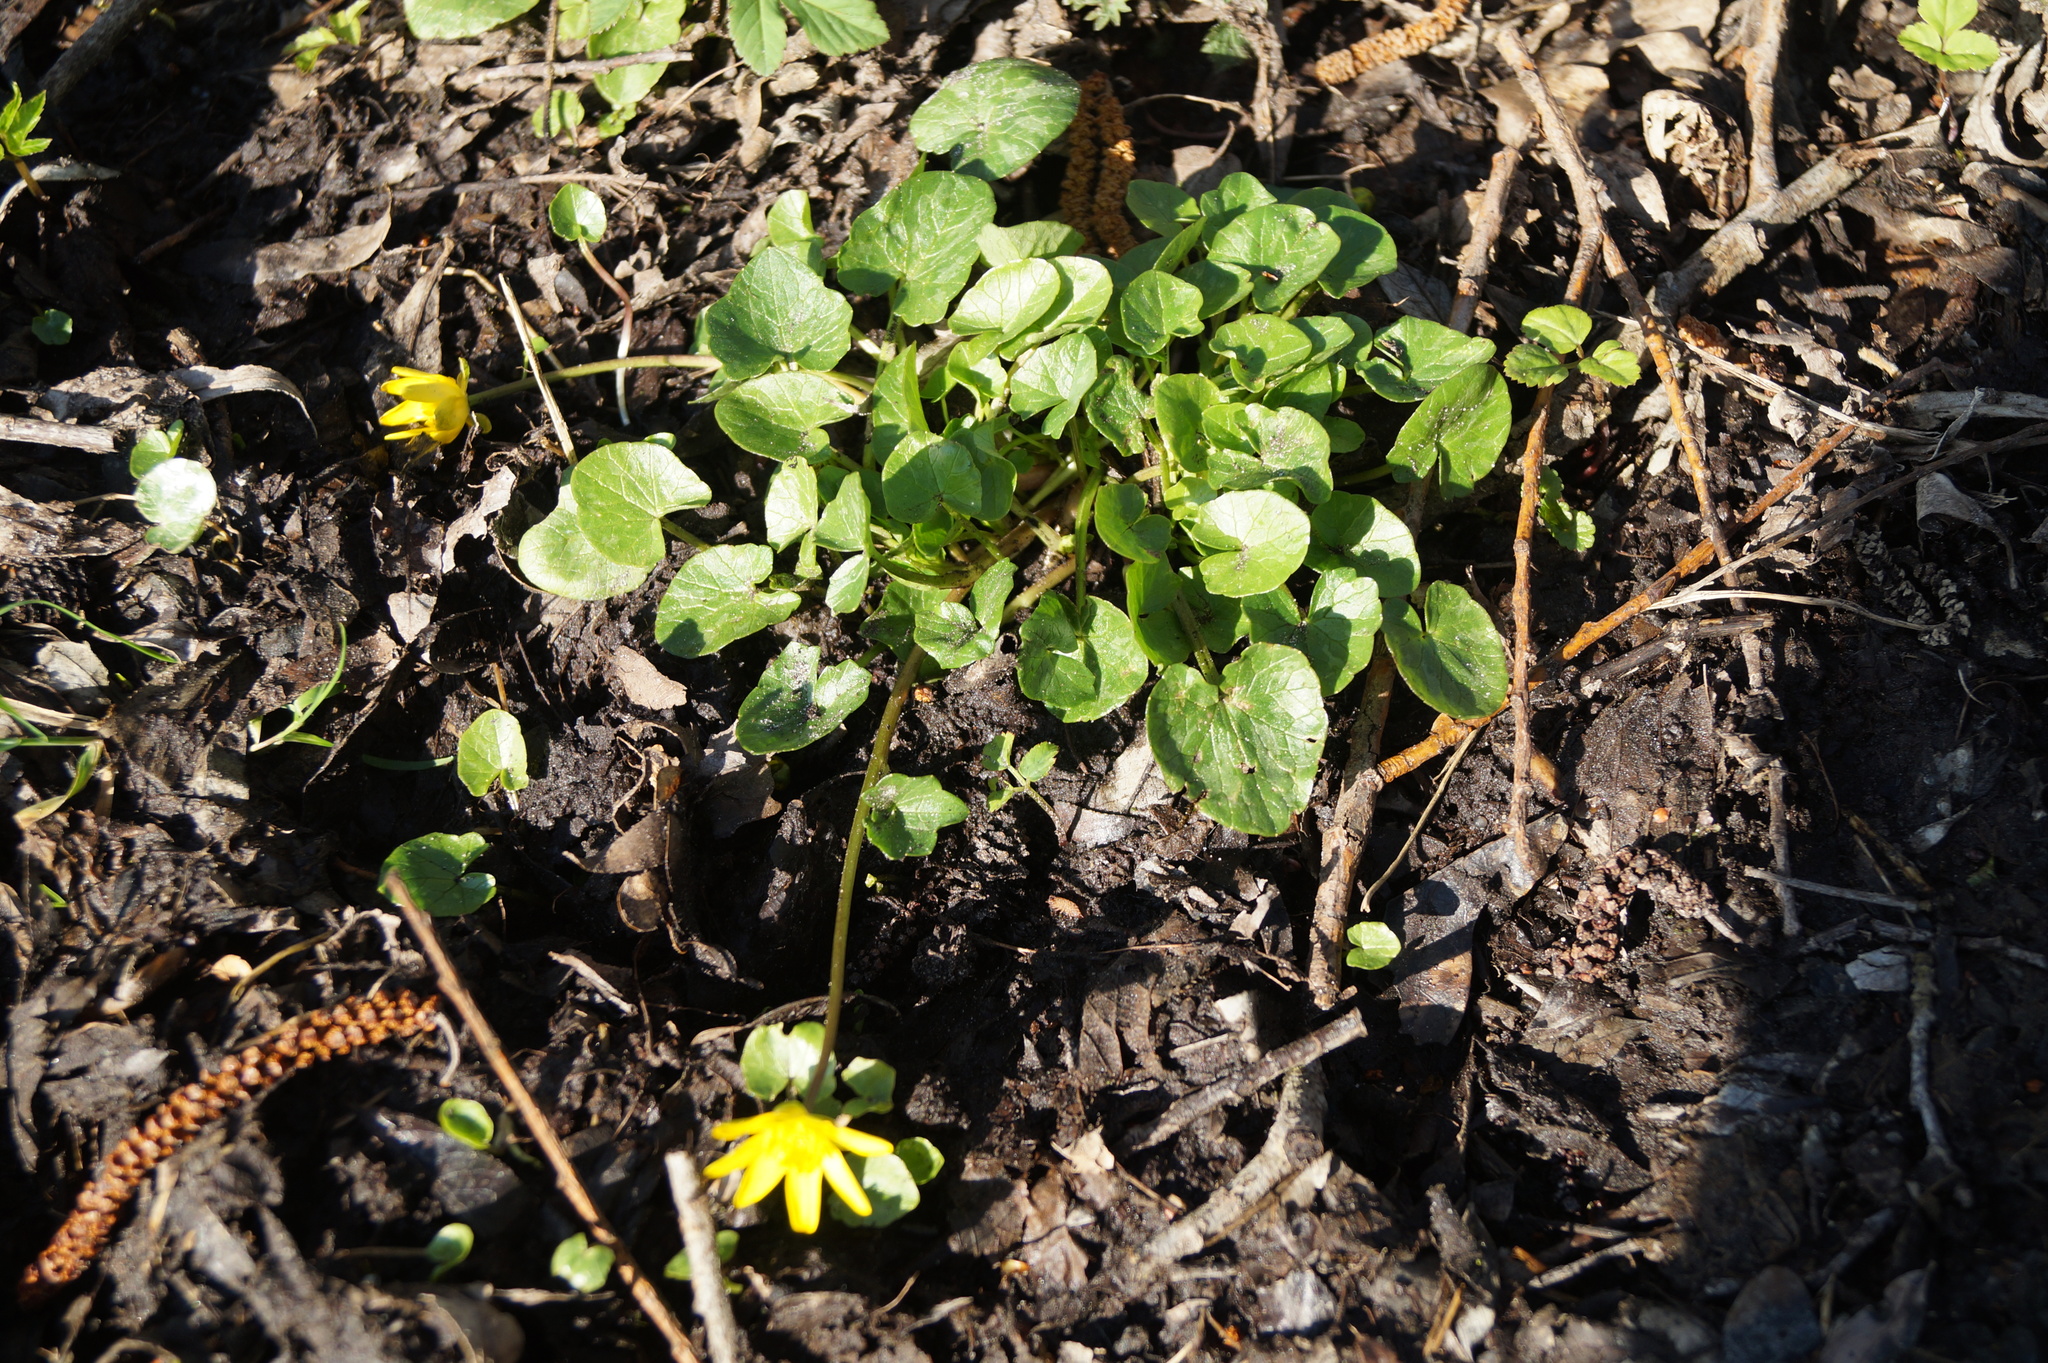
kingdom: Plantae
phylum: Tracheophyta
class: Magnoliopsida
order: Ranunculales
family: Ranunculaceae
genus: Ficaria
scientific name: Ficaria verna
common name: Lesser celandine
